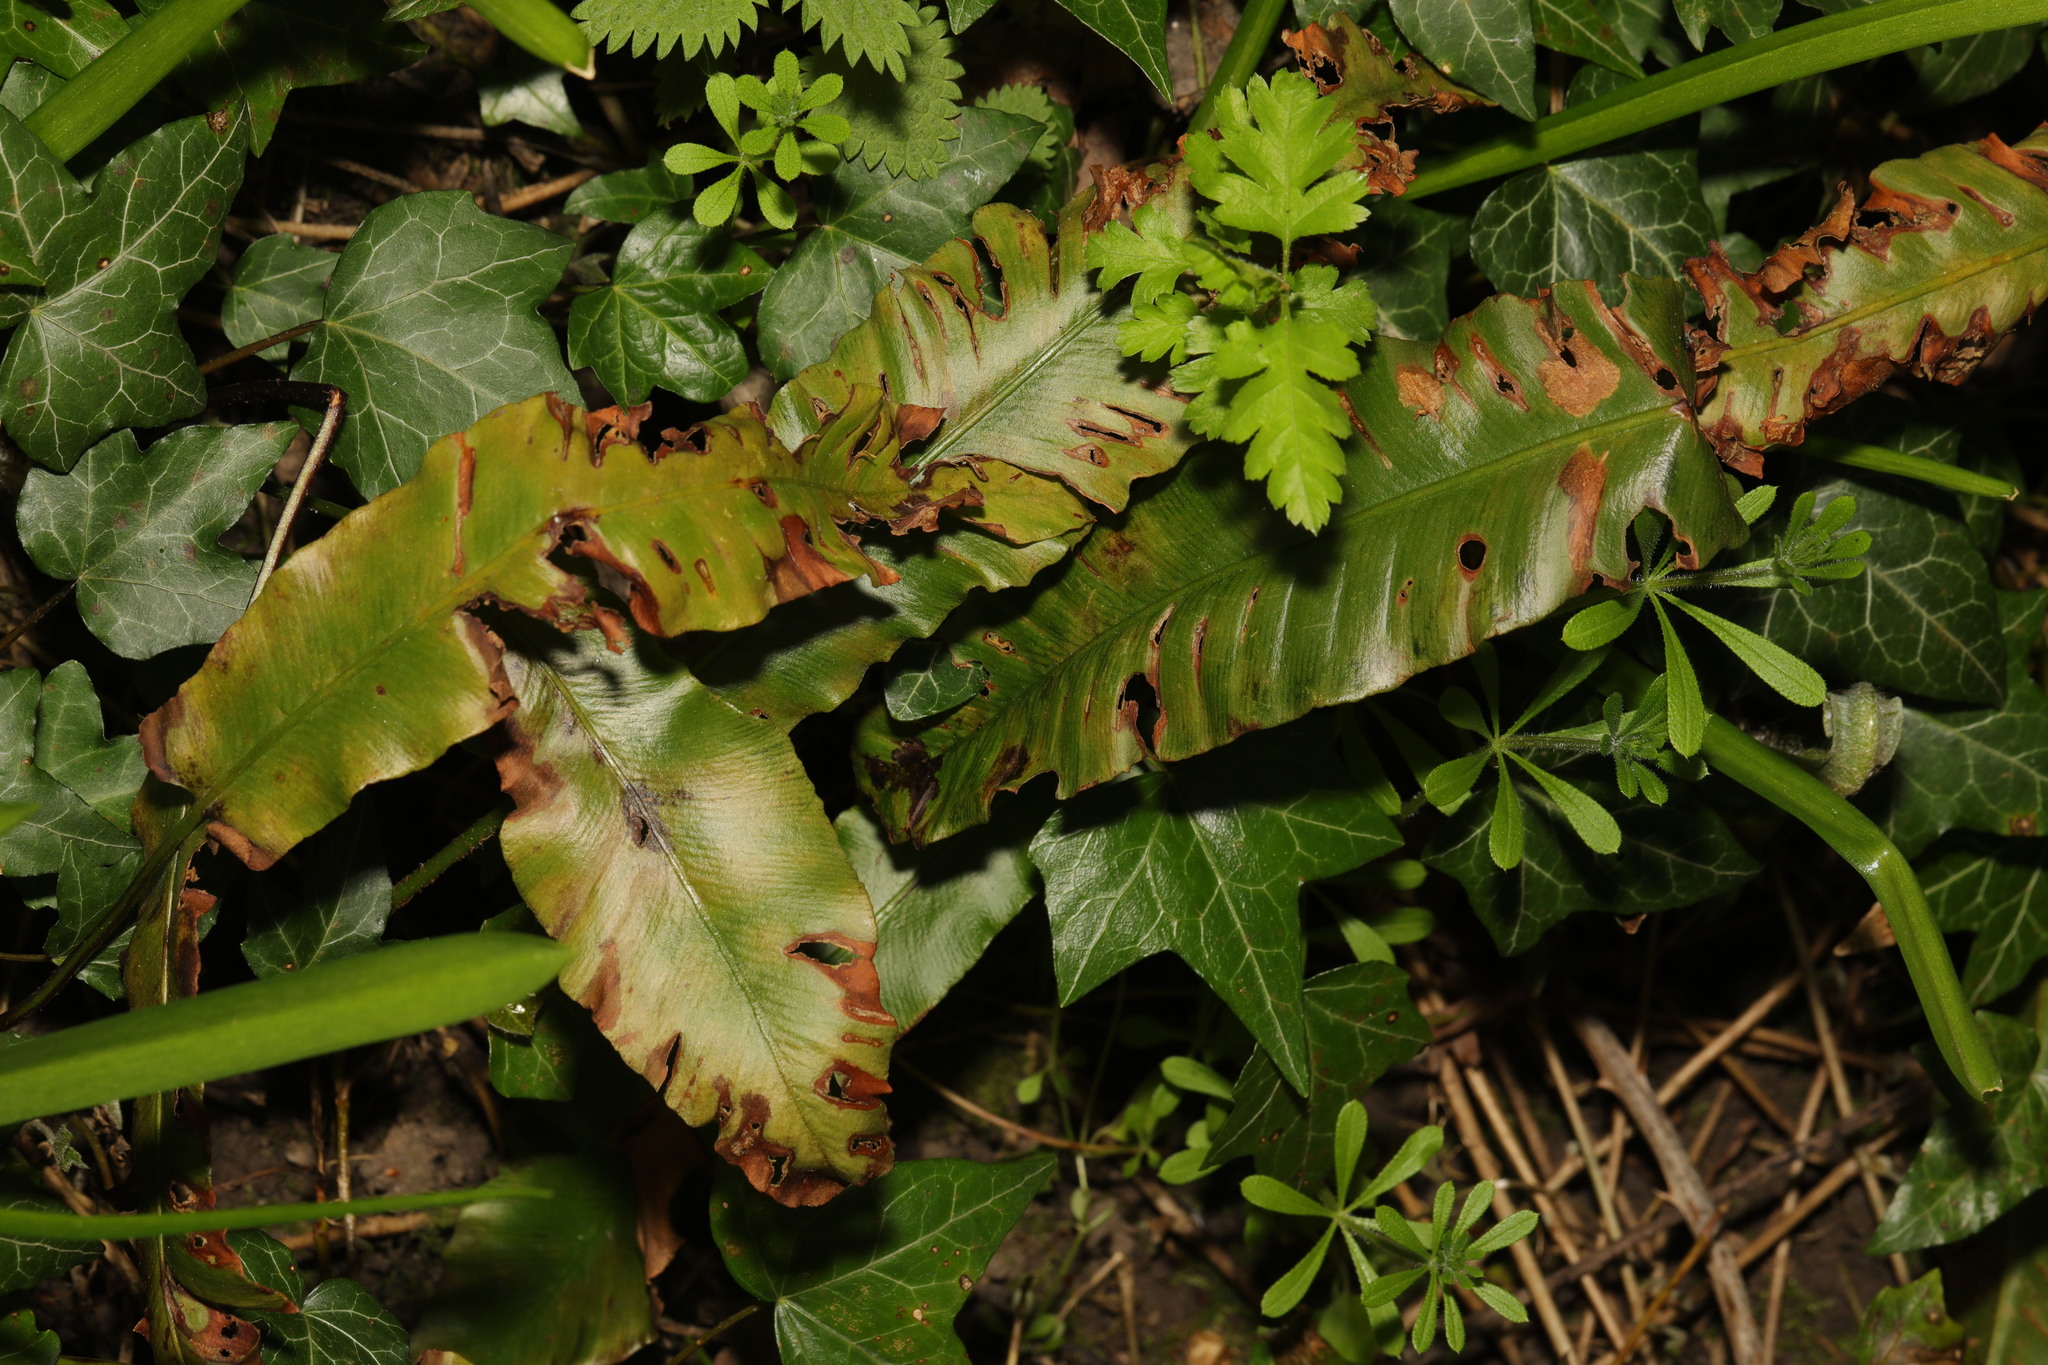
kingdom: Plantae
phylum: Tracheophyta
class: Polypodiopsida
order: Polypodiales
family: Aspleniaceae
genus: Asplenium
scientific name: Asplenium scolopendrium
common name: Hart's-tongue fern
